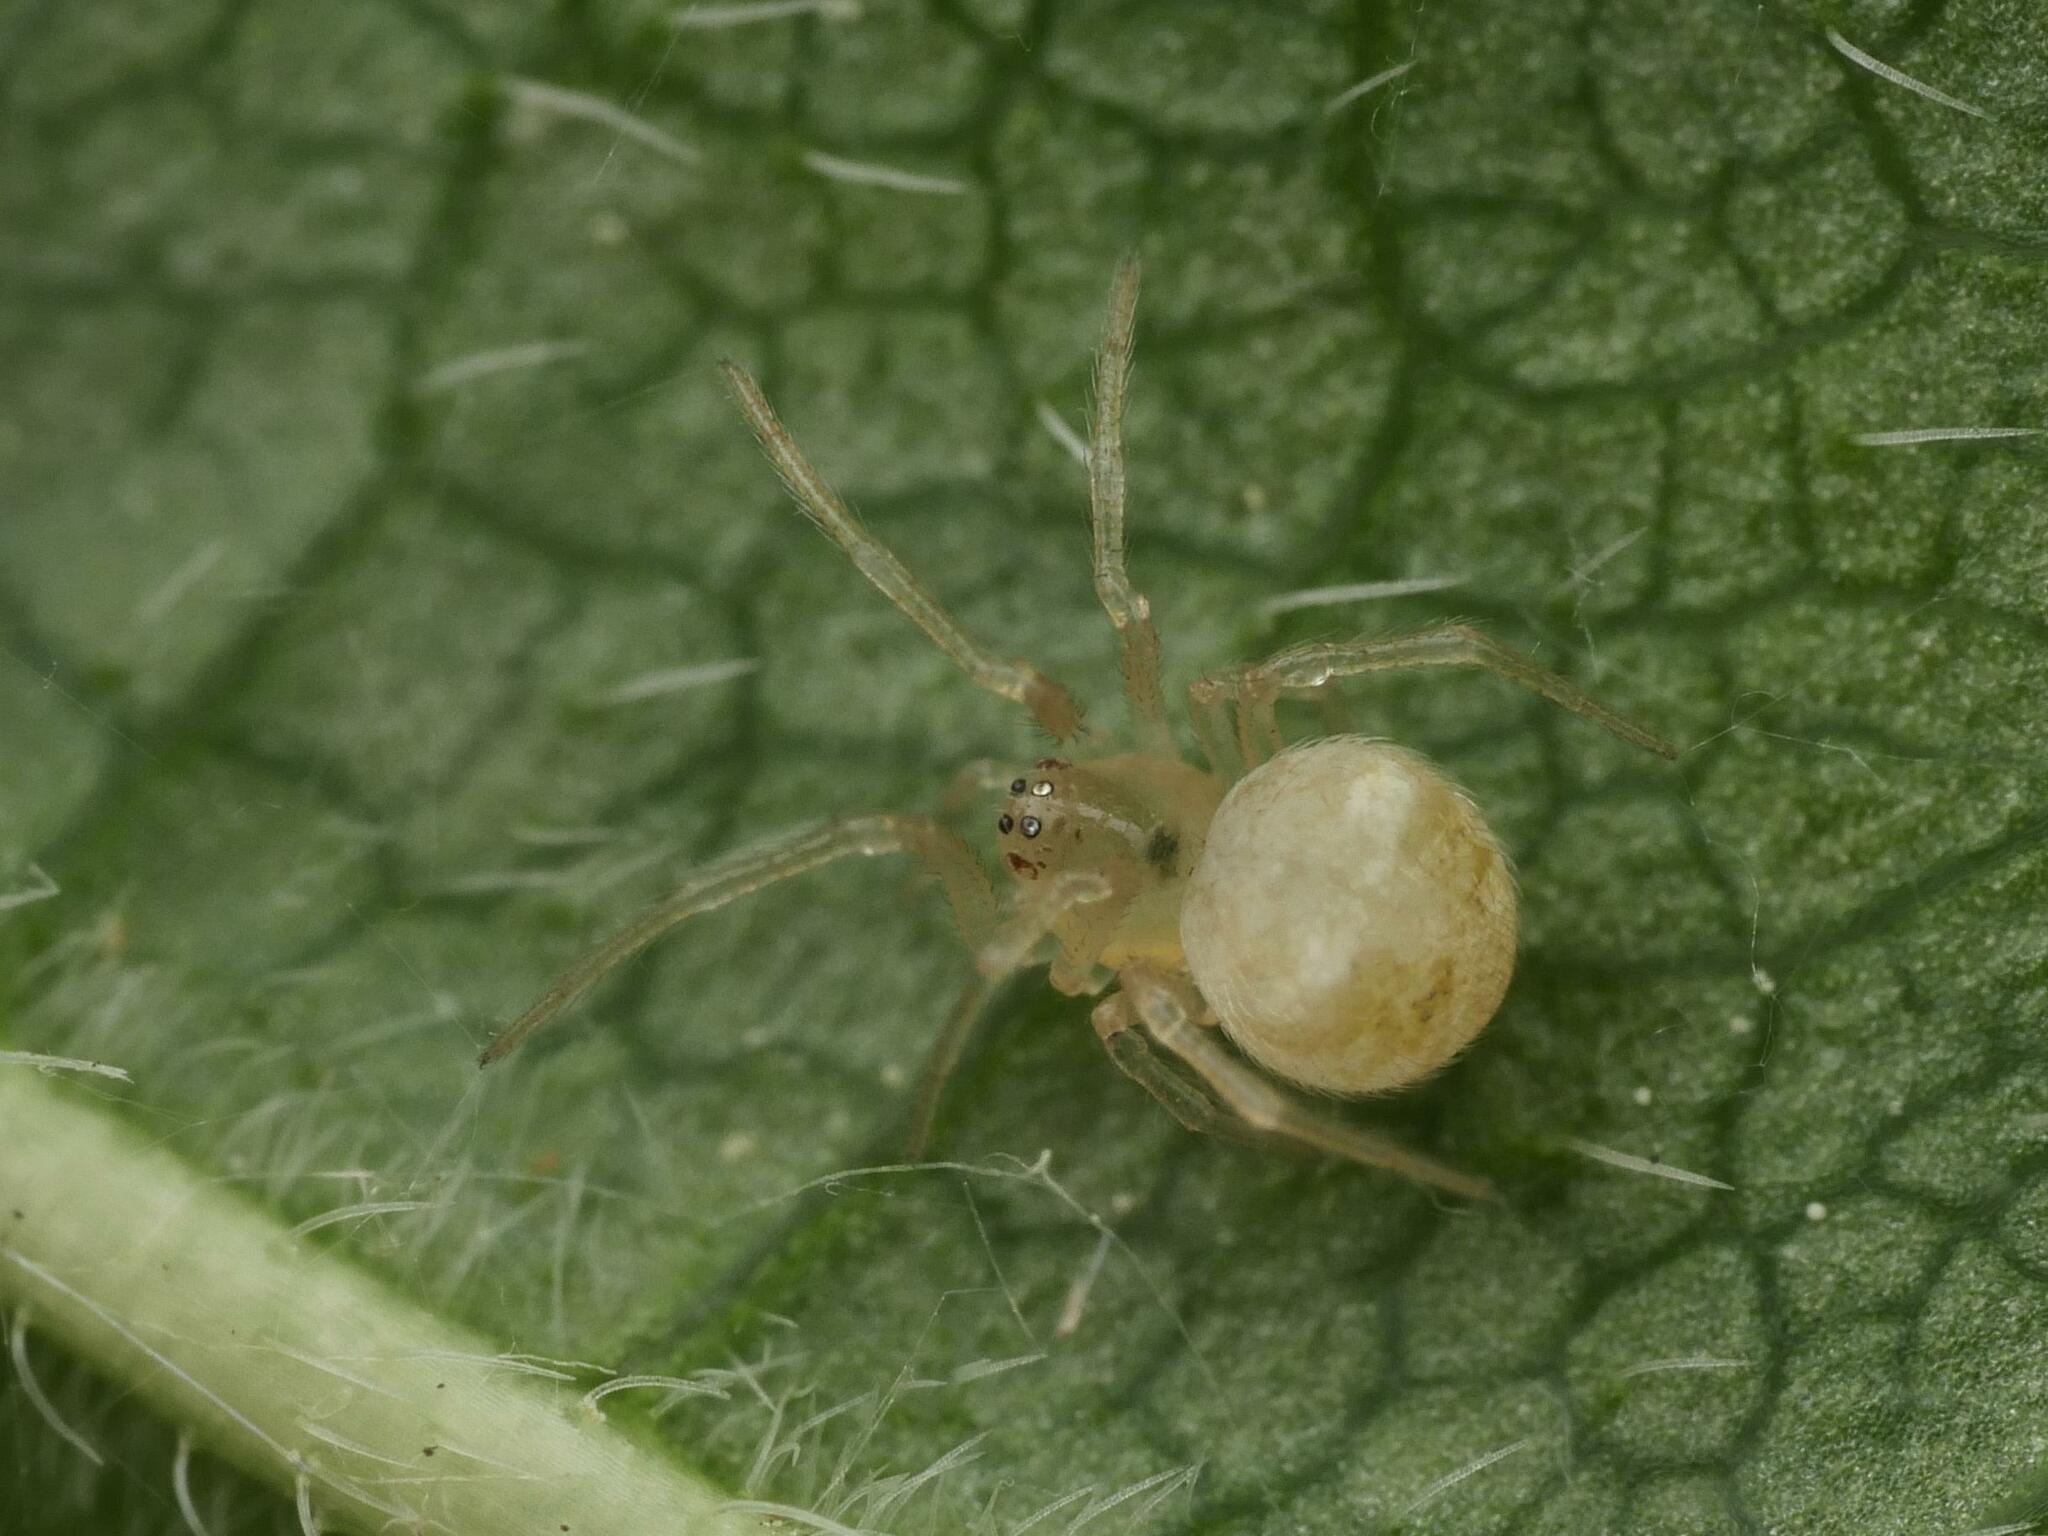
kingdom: Animalia
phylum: Arthropoda
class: Arachnida
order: Araneae
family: Theridiidae
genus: Paidiscura
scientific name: Paidiscura pallens
